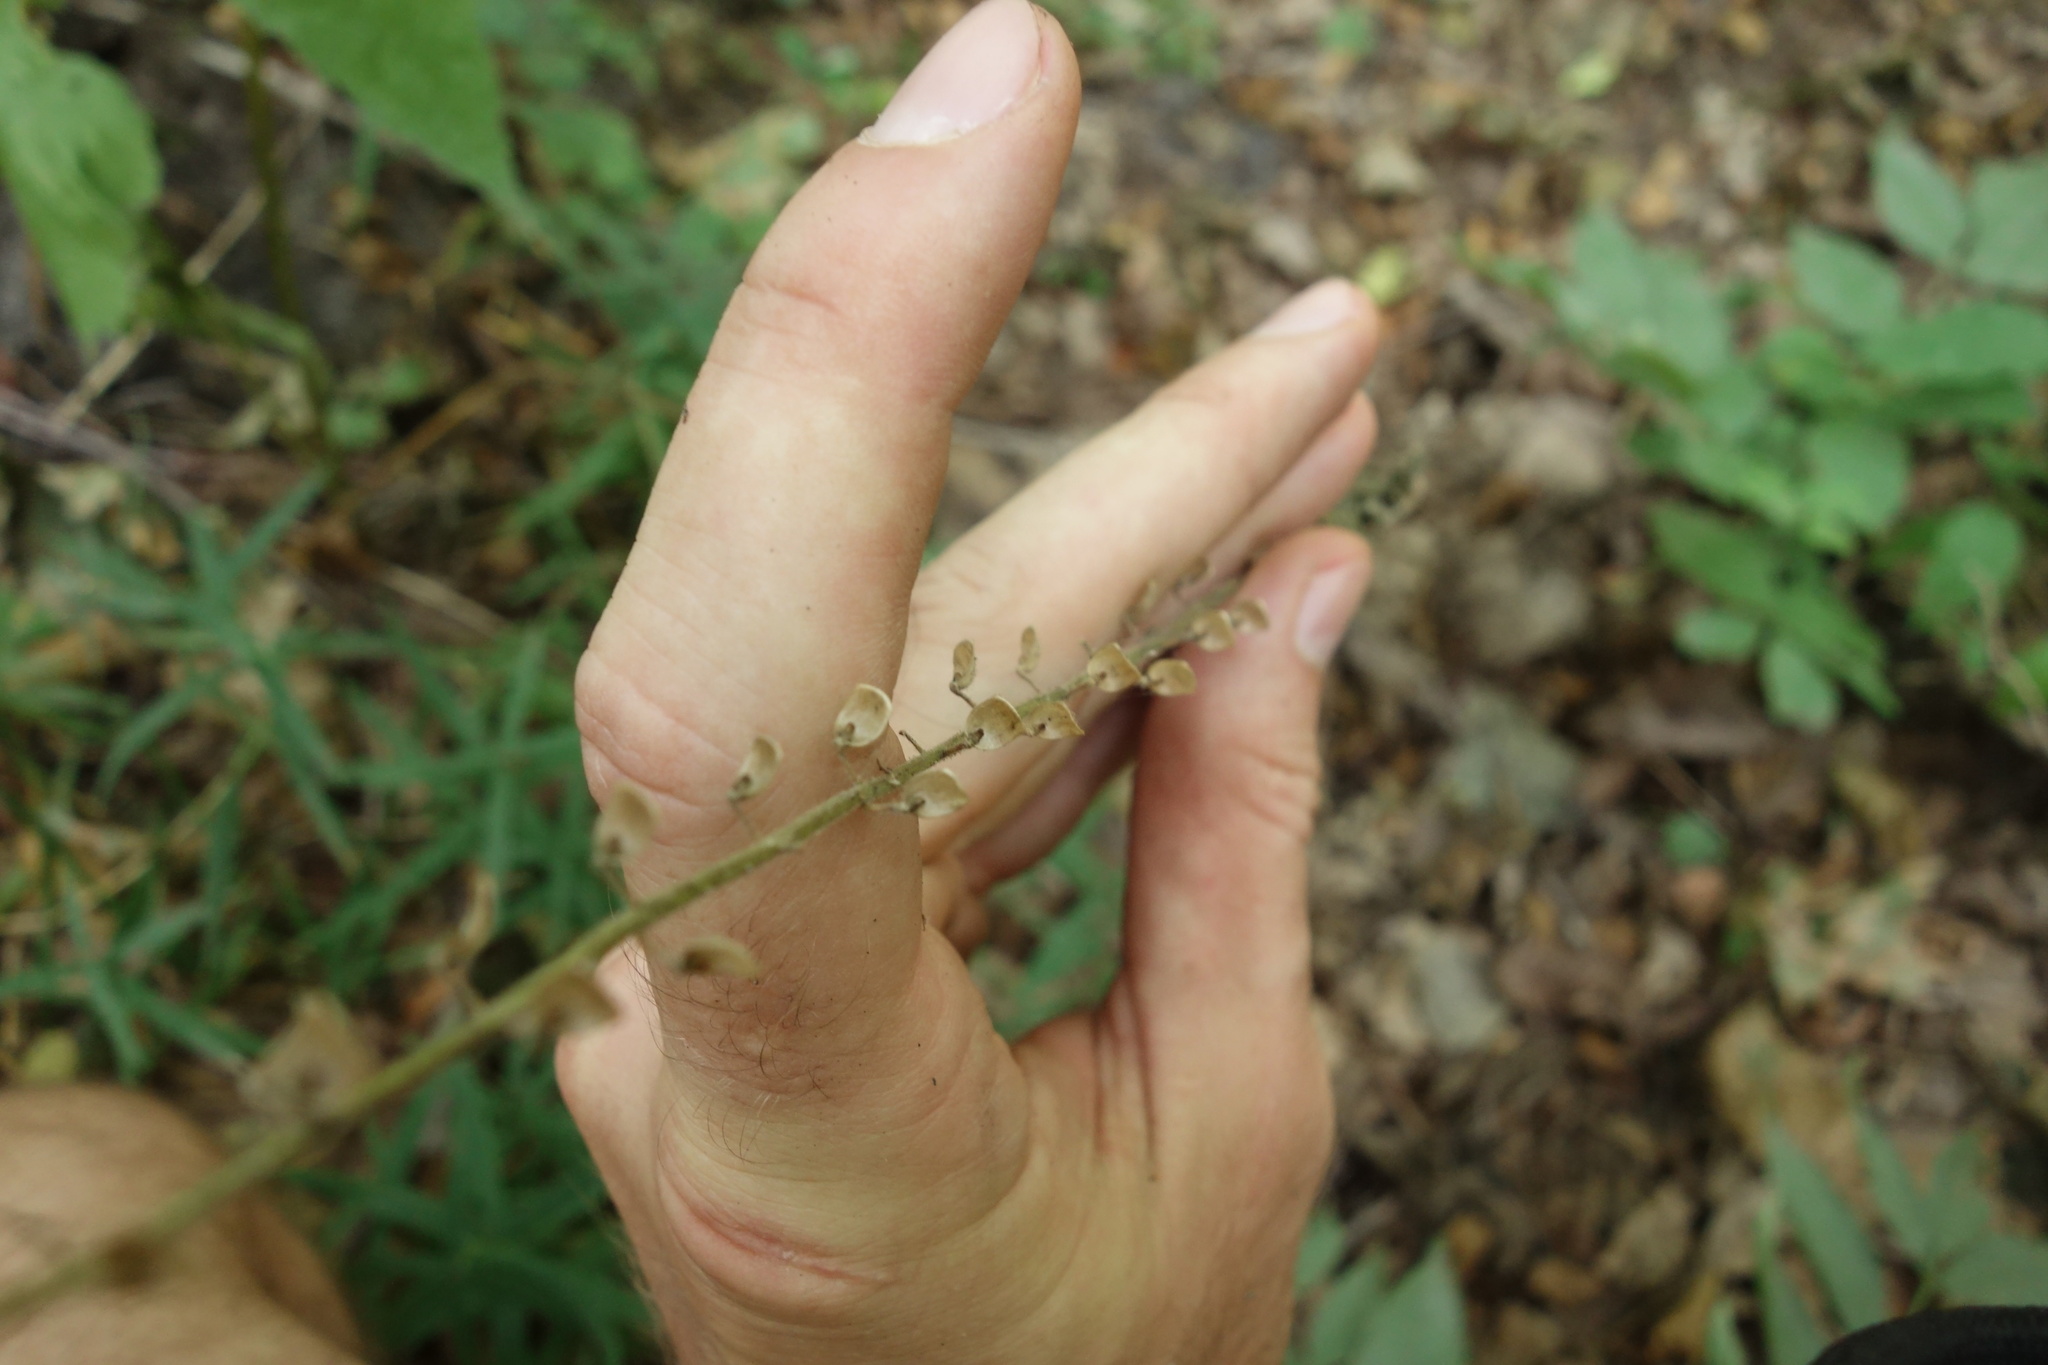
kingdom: Plantae
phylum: Tracheophyta
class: Magnoliopsida
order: Lamiales
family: Lamiaceae
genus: Scutellaria
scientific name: Scutellaria altissima
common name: Somerset skullcap
